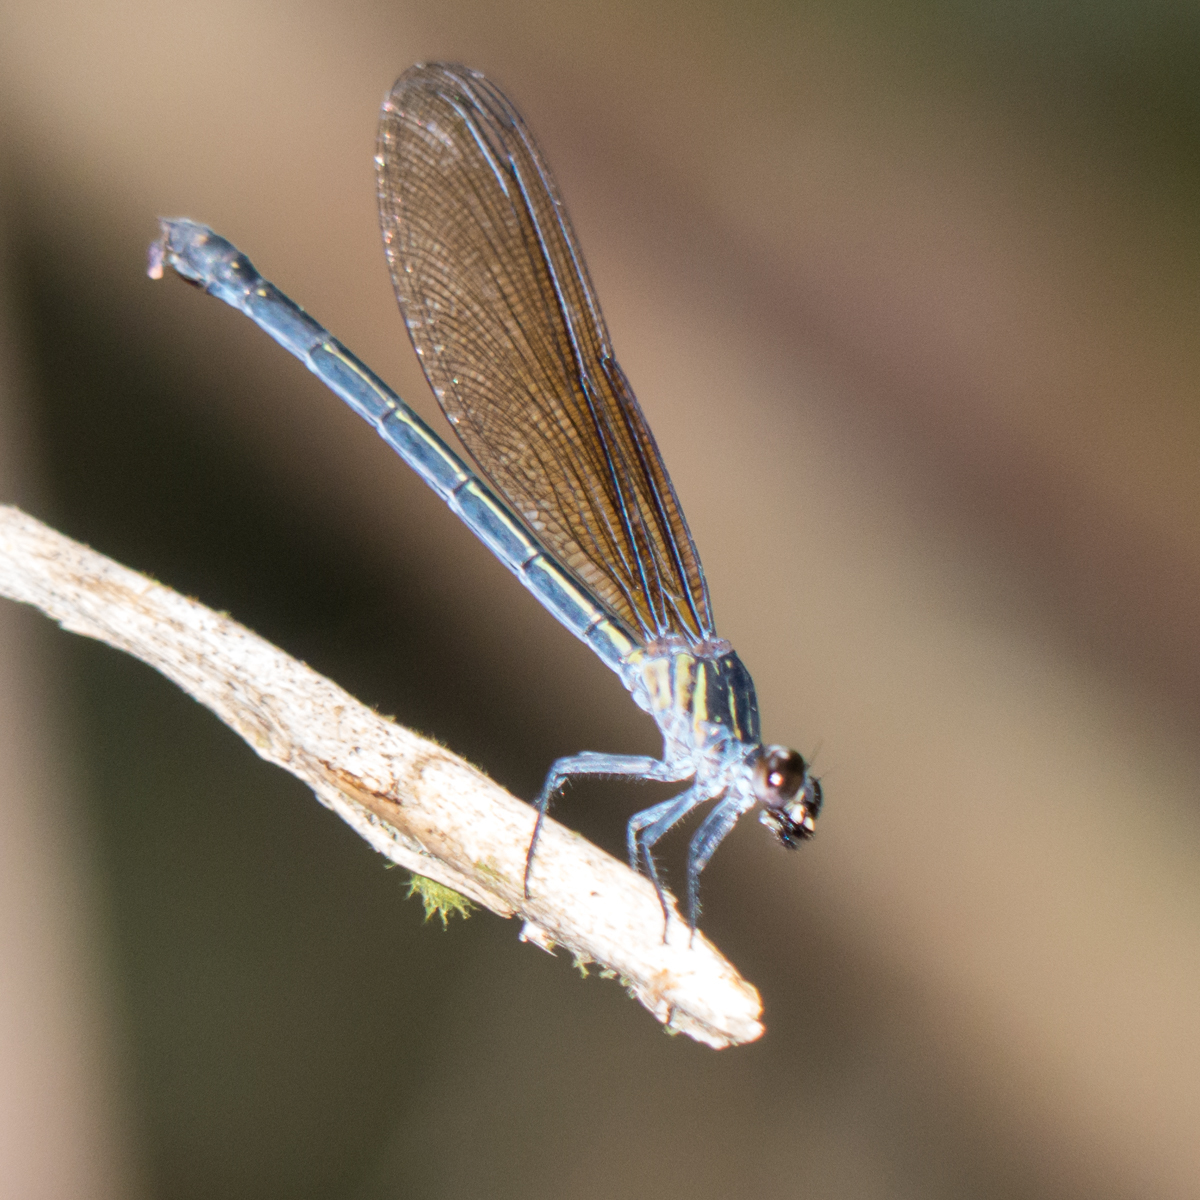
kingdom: Animalia
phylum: Arthropoda
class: Insecta
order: Odonata
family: Euphaeidae
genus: Euphaea
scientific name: Euphaea masoni
